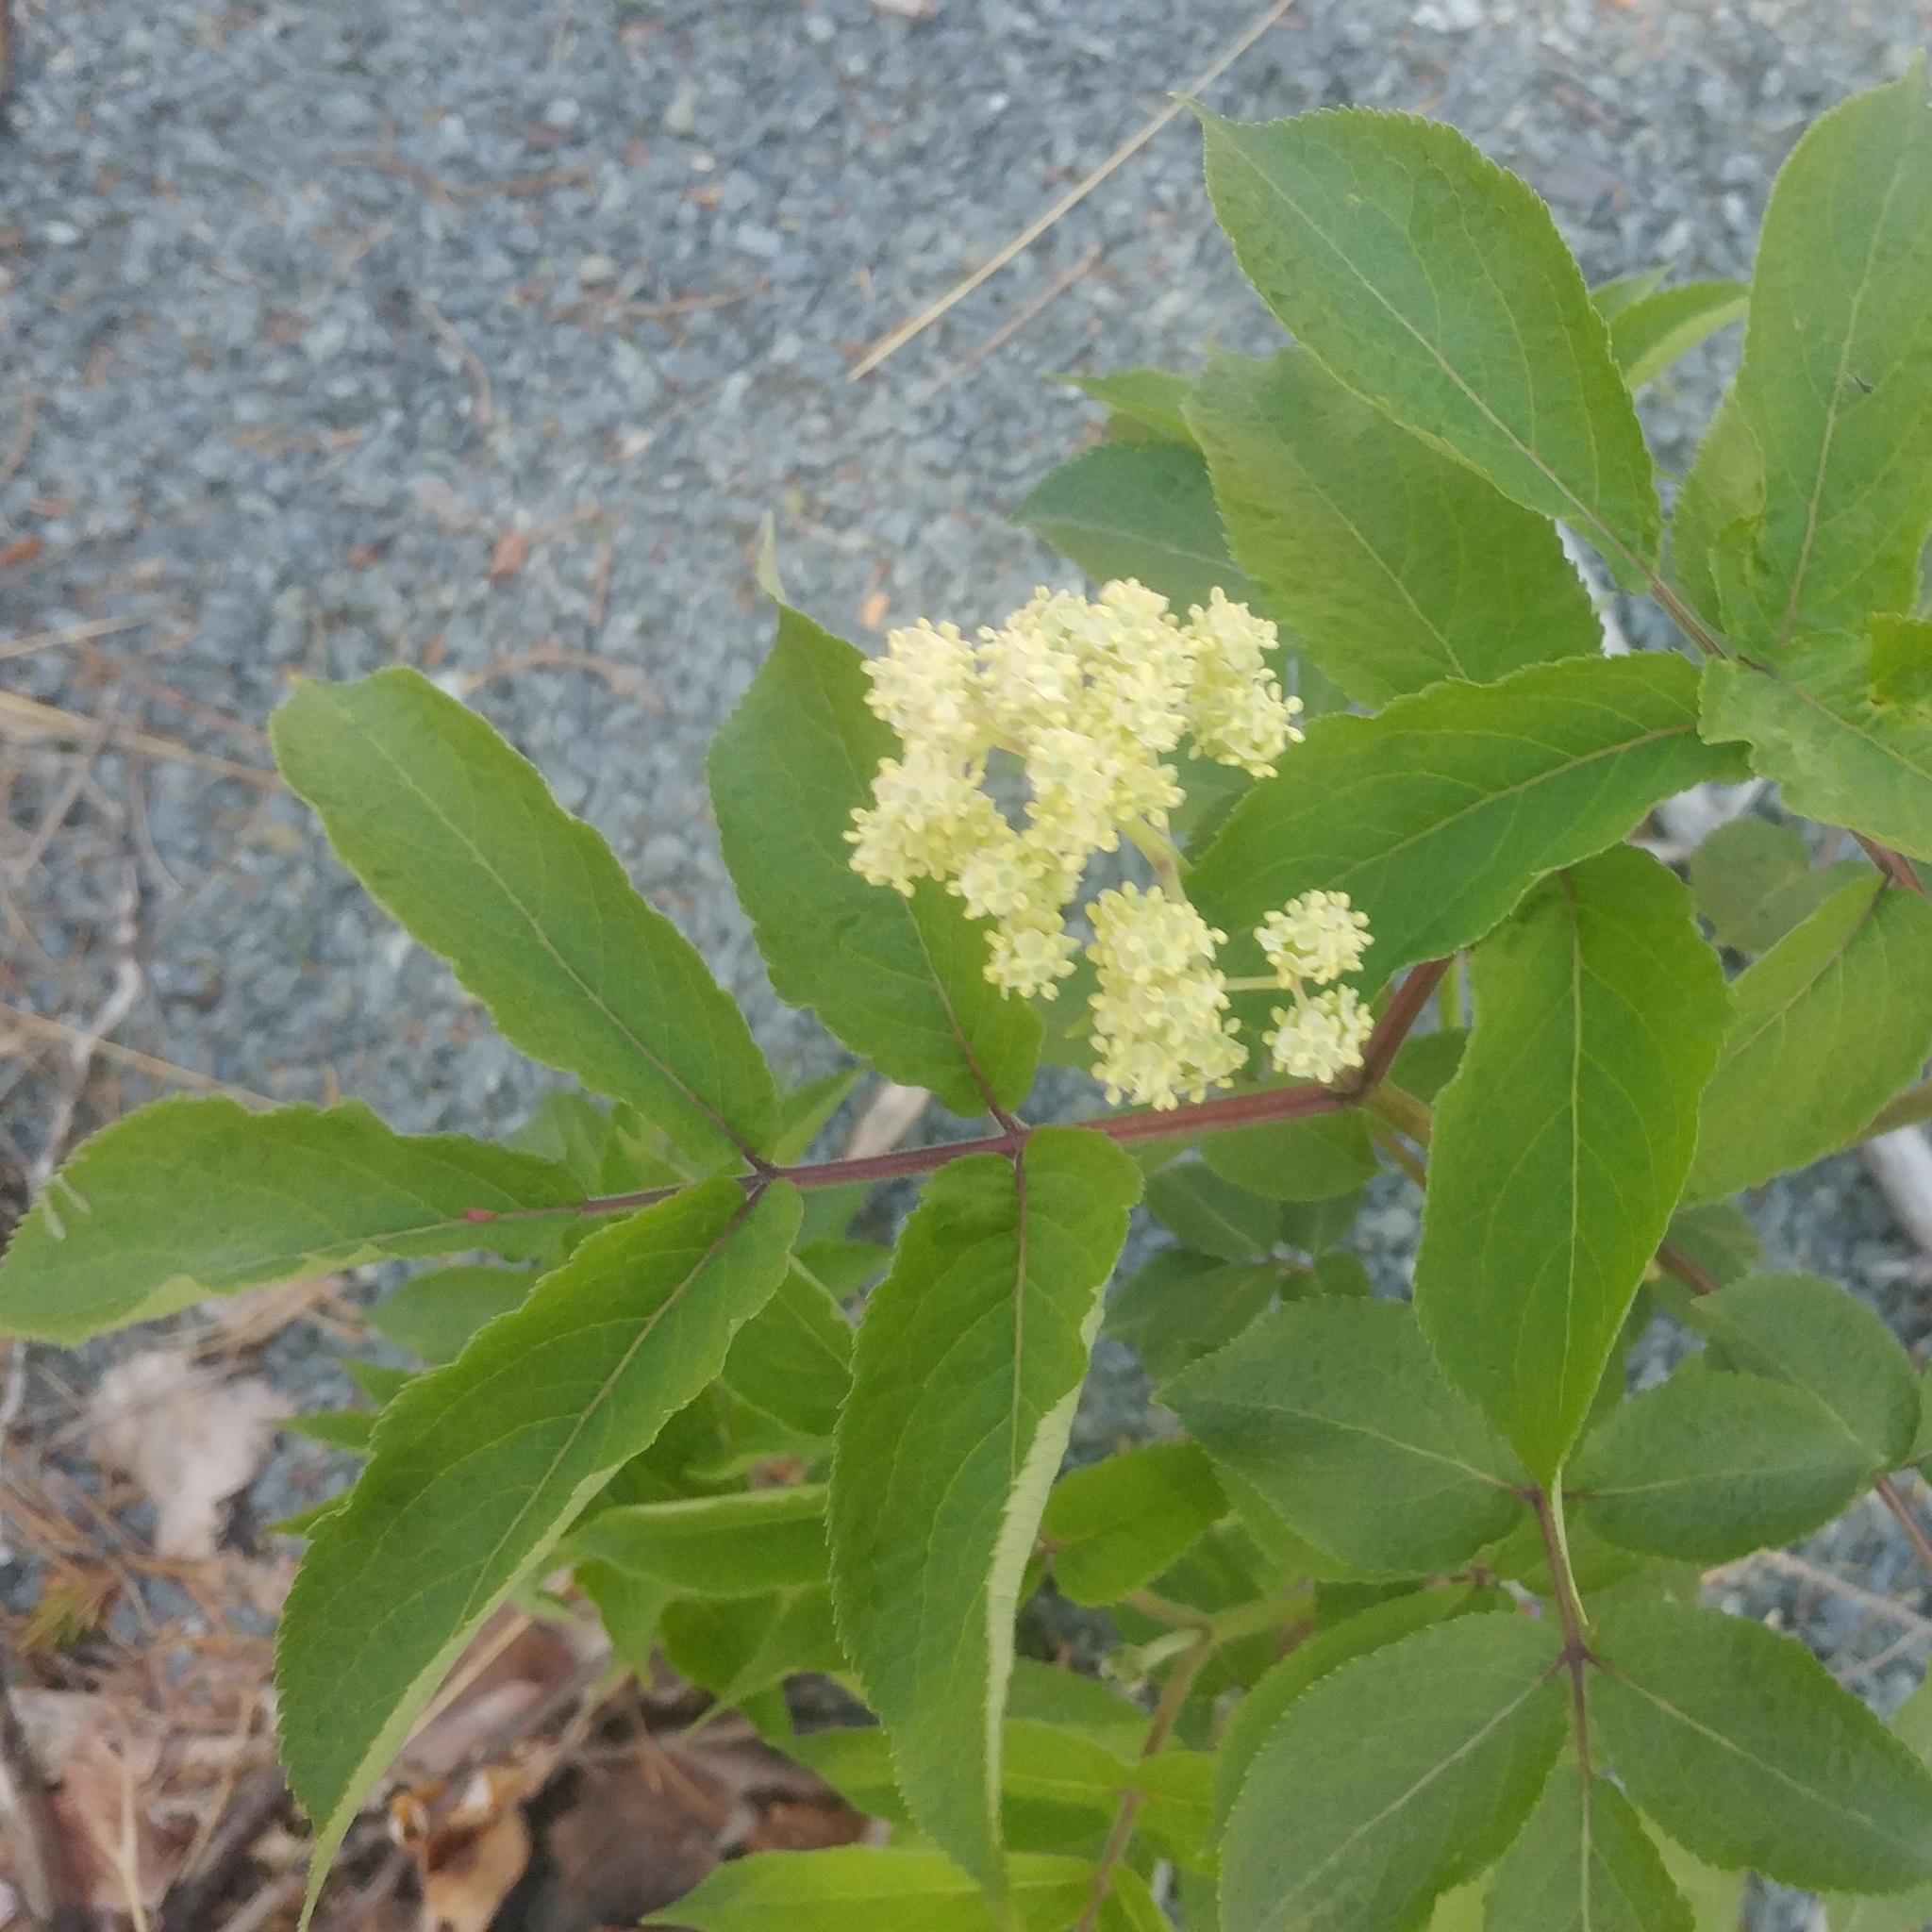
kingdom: Plantae
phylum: Tracheophyta
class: Magnoliopsida
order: Dipsacales
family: Viburnaceae
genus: Sambucus
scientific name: Sambucus racemosa
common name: Red-berried elder
